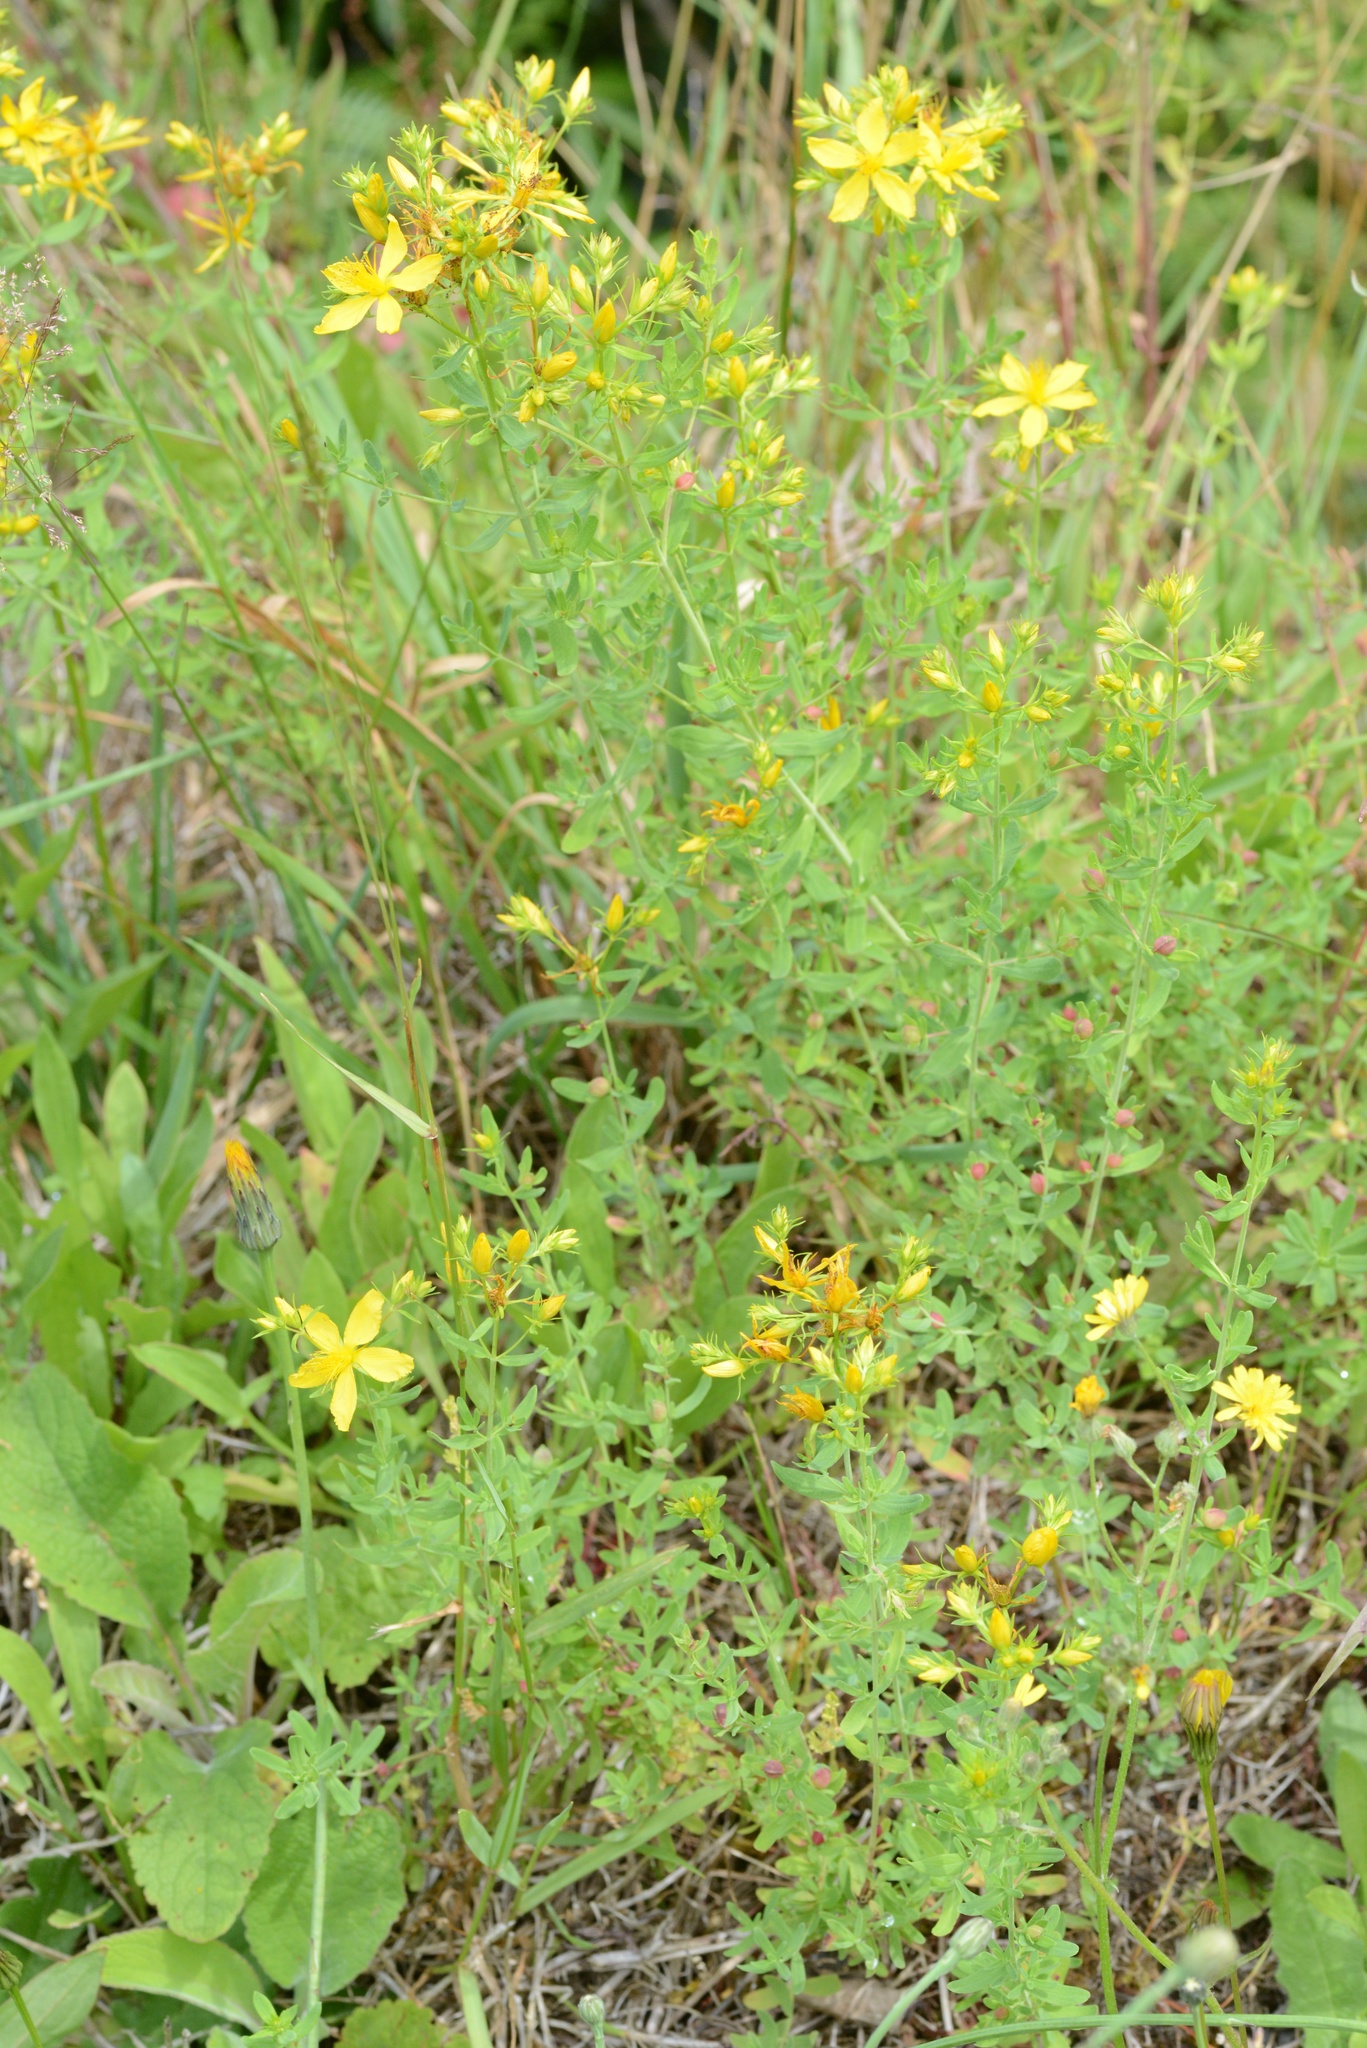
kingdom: Plantae
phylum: Tracheophyta
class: Magnoliopsida
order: Malpighiales
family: Hypericaceae
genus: Hypericum
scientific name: Hypericum perforatum
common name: Common st. johnswort
